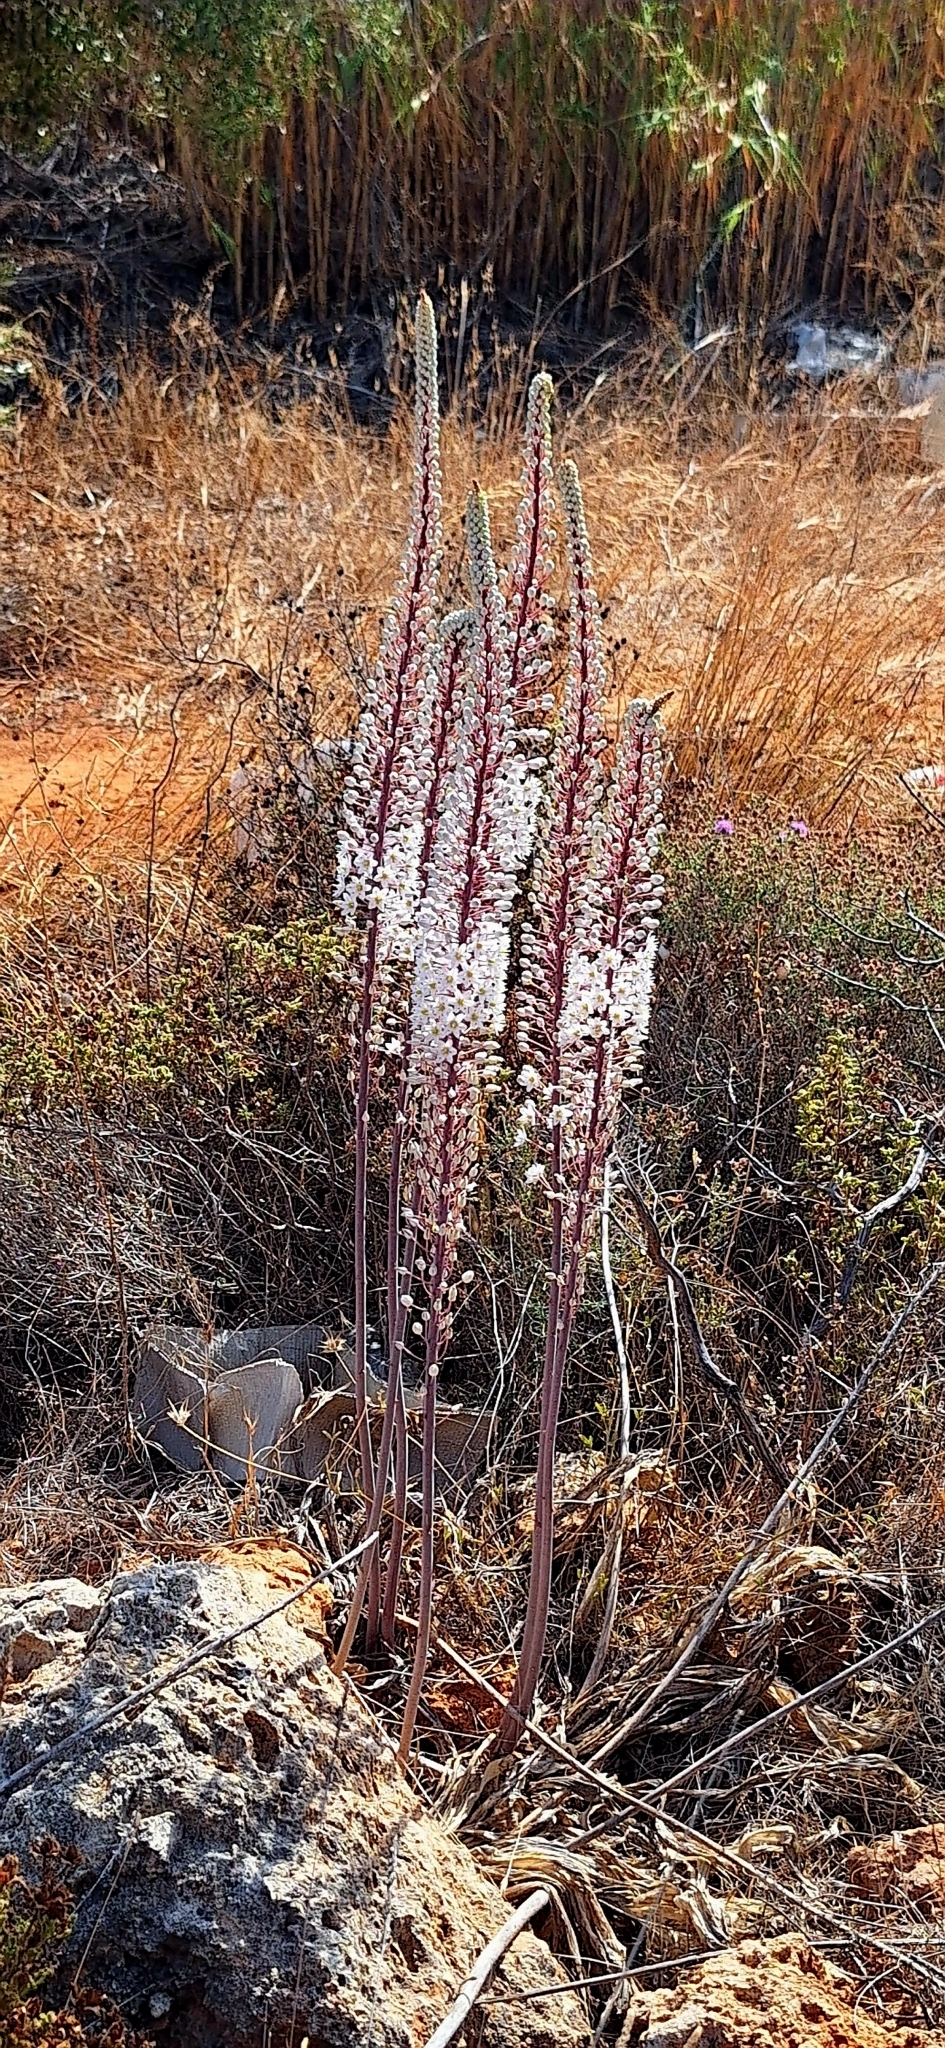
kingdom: Plantae
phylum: Tracheophyta
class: Liliopsida
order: Asparagales
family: Asparagaceae
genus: Drimia
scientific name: Drimia numidica
